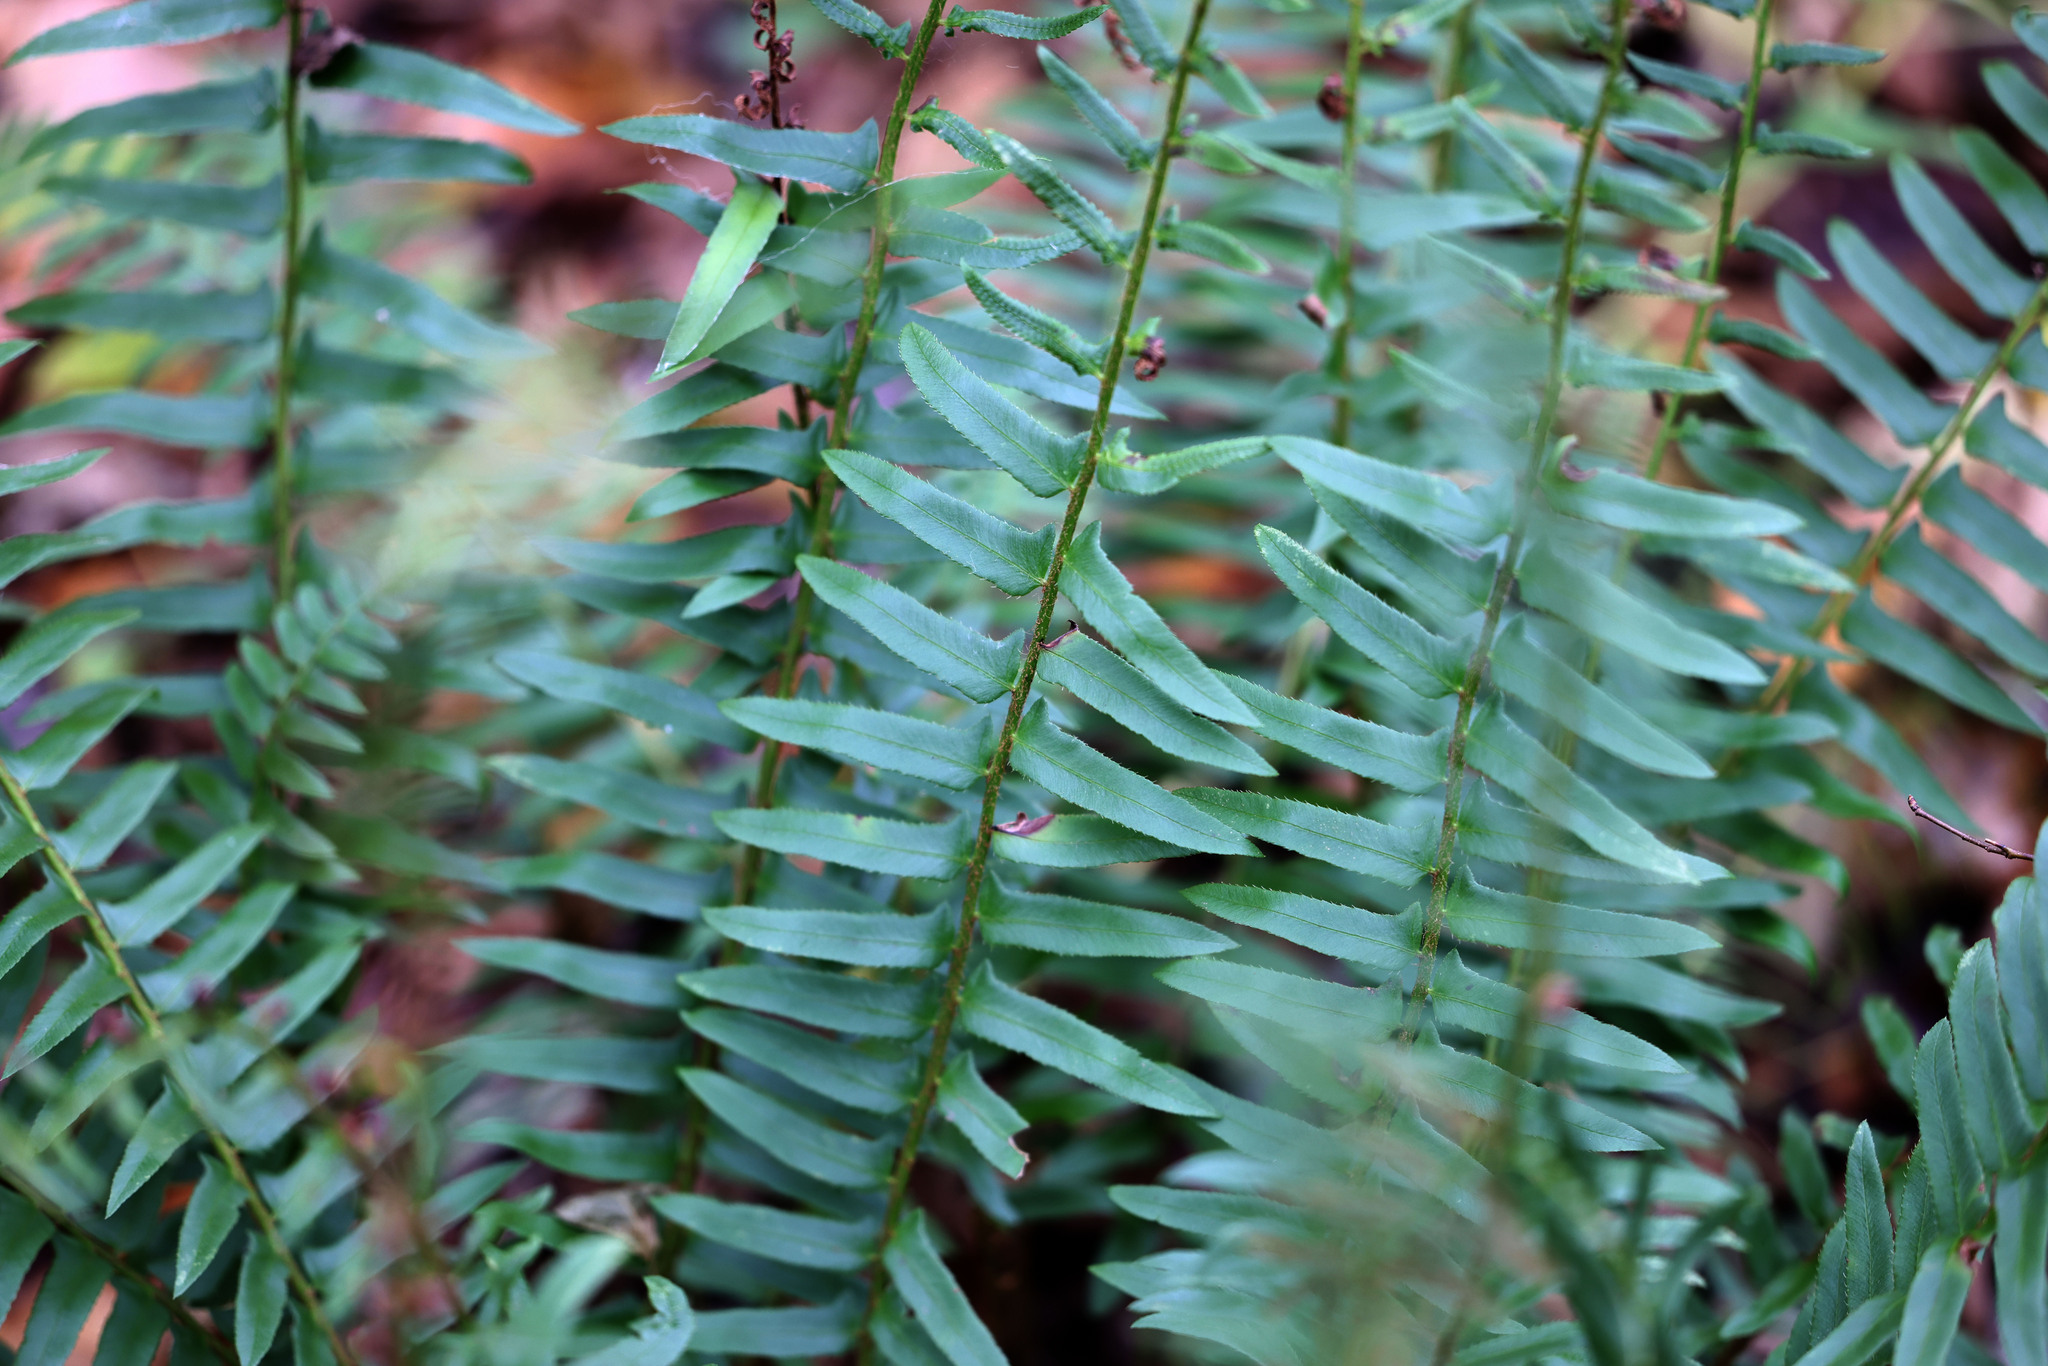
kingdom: Plantae
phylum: Tracheophyta
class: Polypodiopsida
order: Polypodiales
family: Dryopteridaceae
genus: Polystichum
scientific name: Polystichum acrostichoides
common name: Christmas fern
